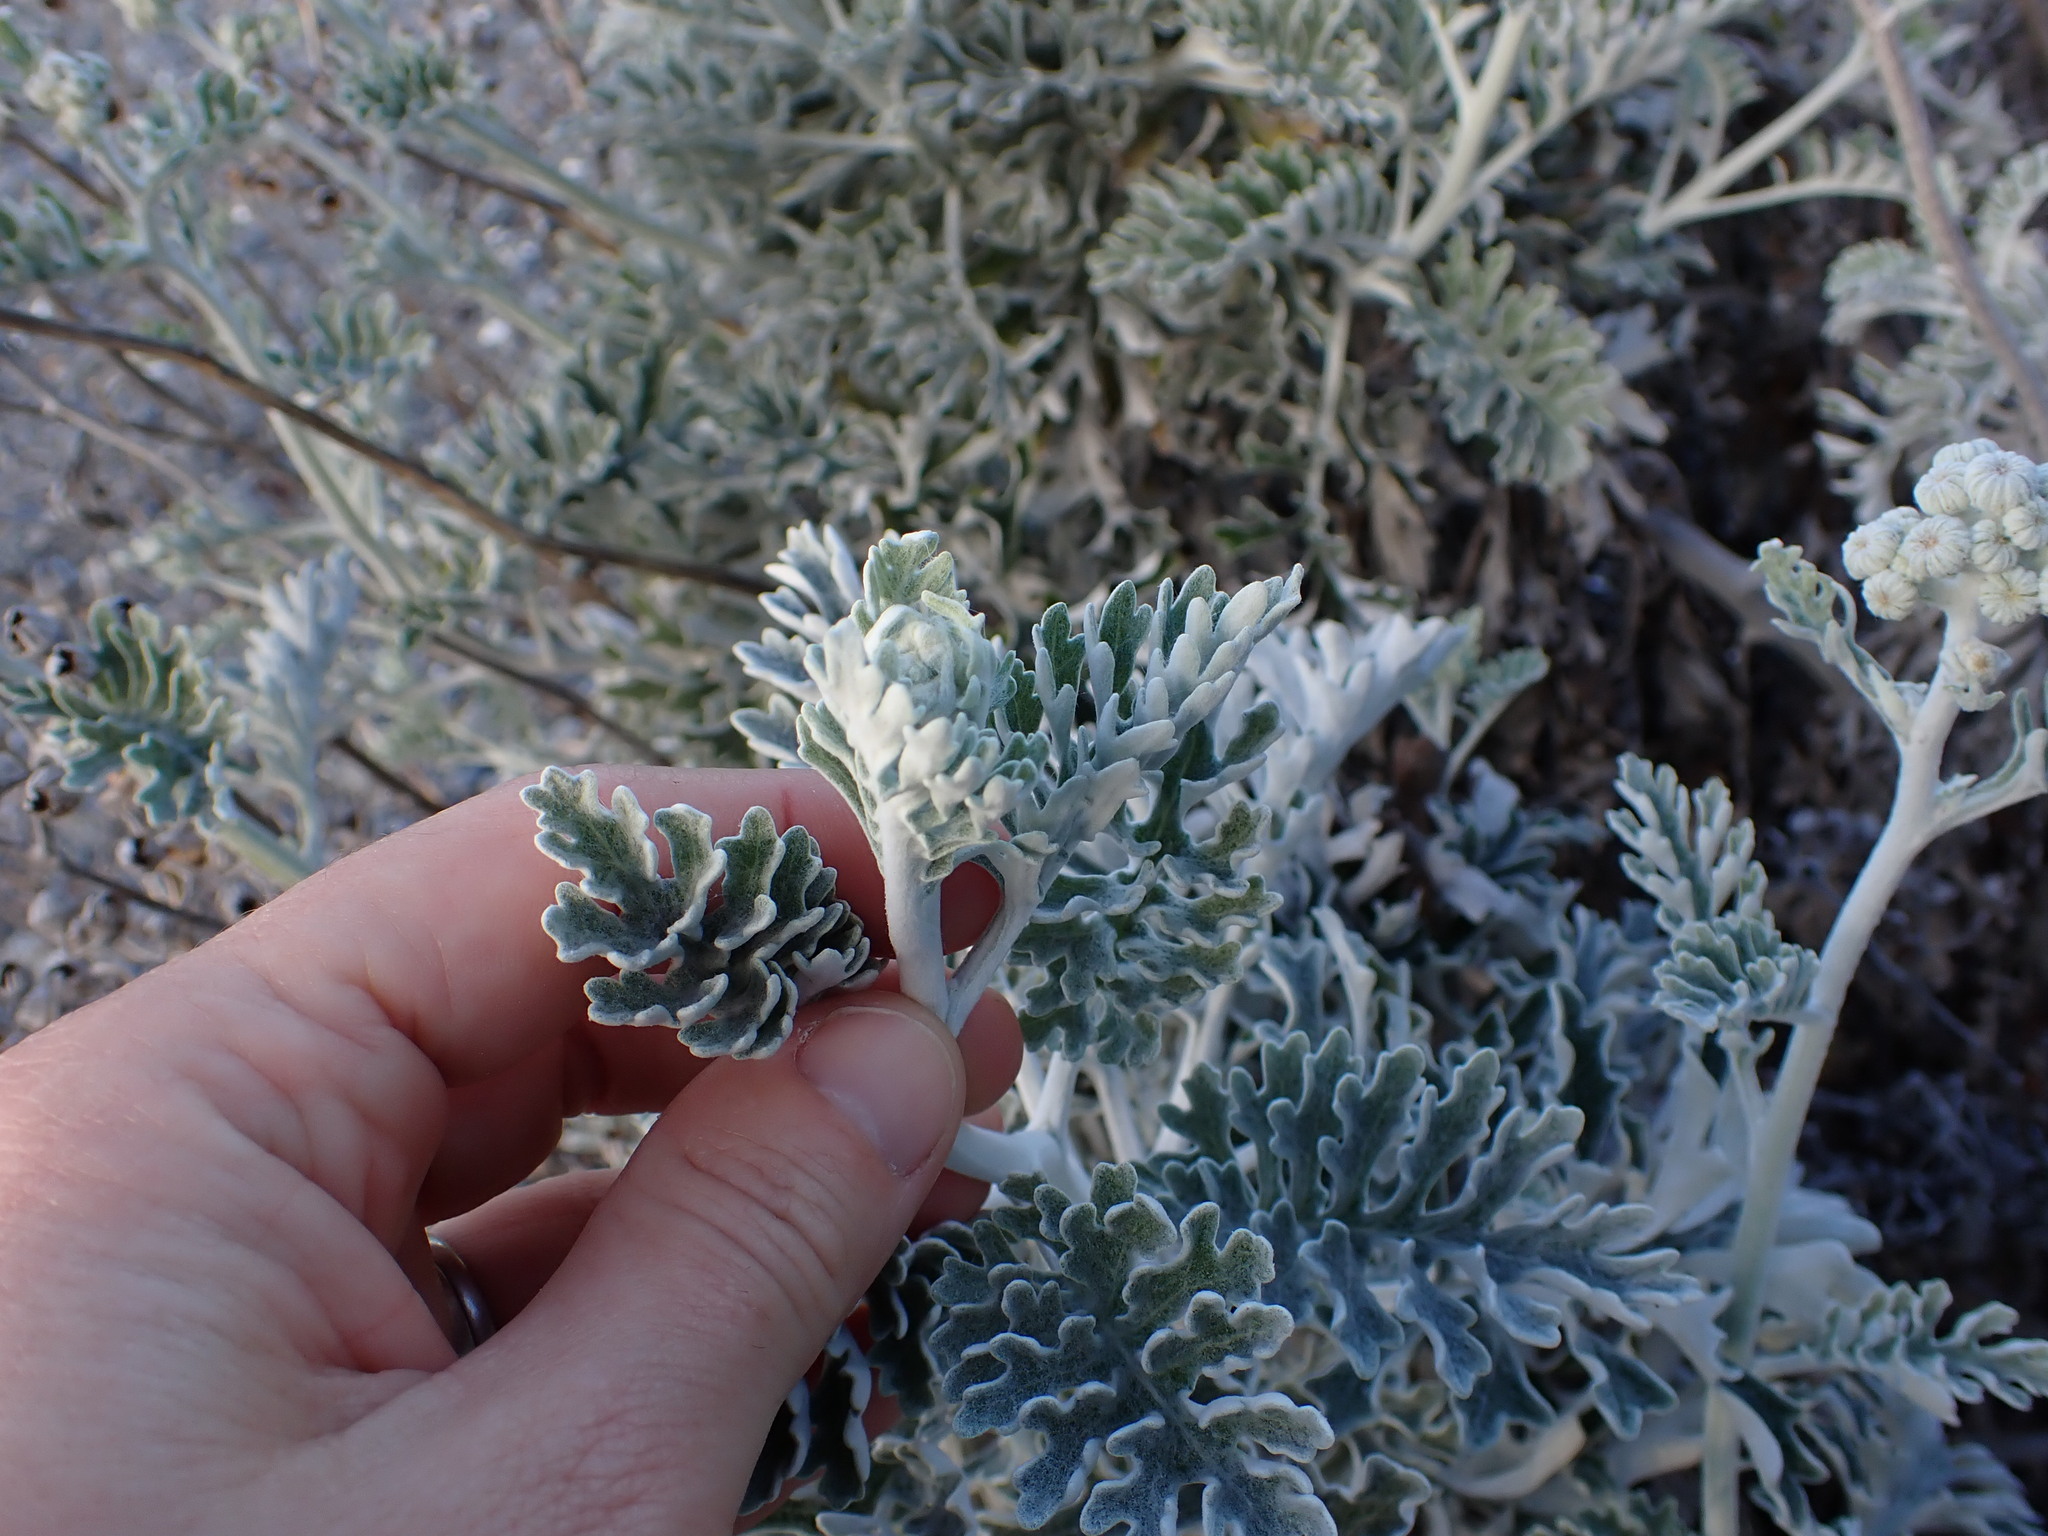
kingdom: Plantae
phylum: Tracheophyta
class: Magnoliopsida
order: Asterales
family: Asteraceae
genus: Jacobaea
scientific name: Jacobaea maritima
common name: Silver ragwort
